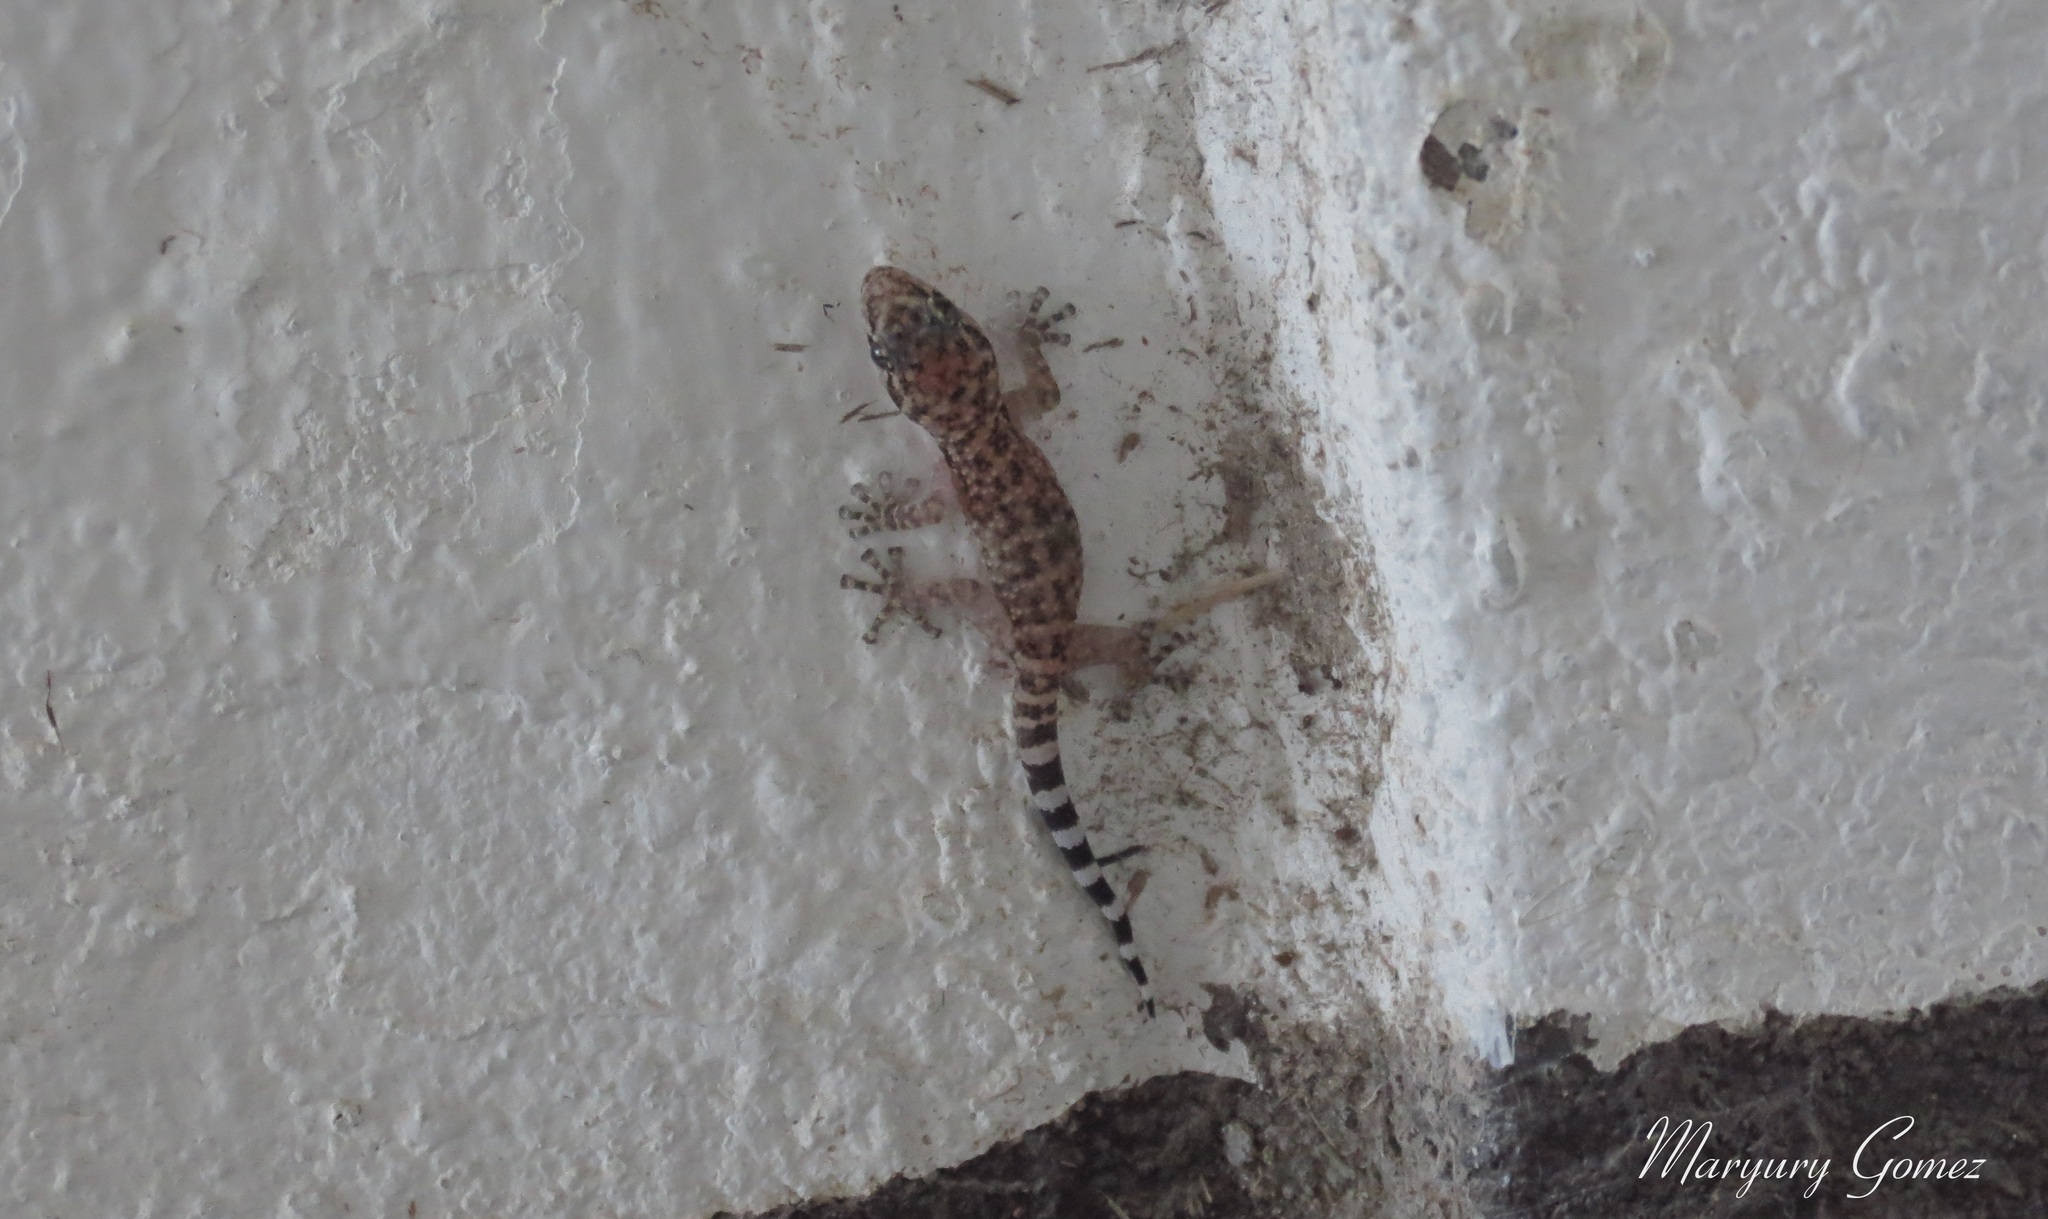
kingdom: Animalia
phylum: Chordata
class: Squamata
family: Phyllodactylidae
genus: Phyllodactylus
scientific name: Phyllodactylus tuberculosus
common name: Yellowbelly  gecko
